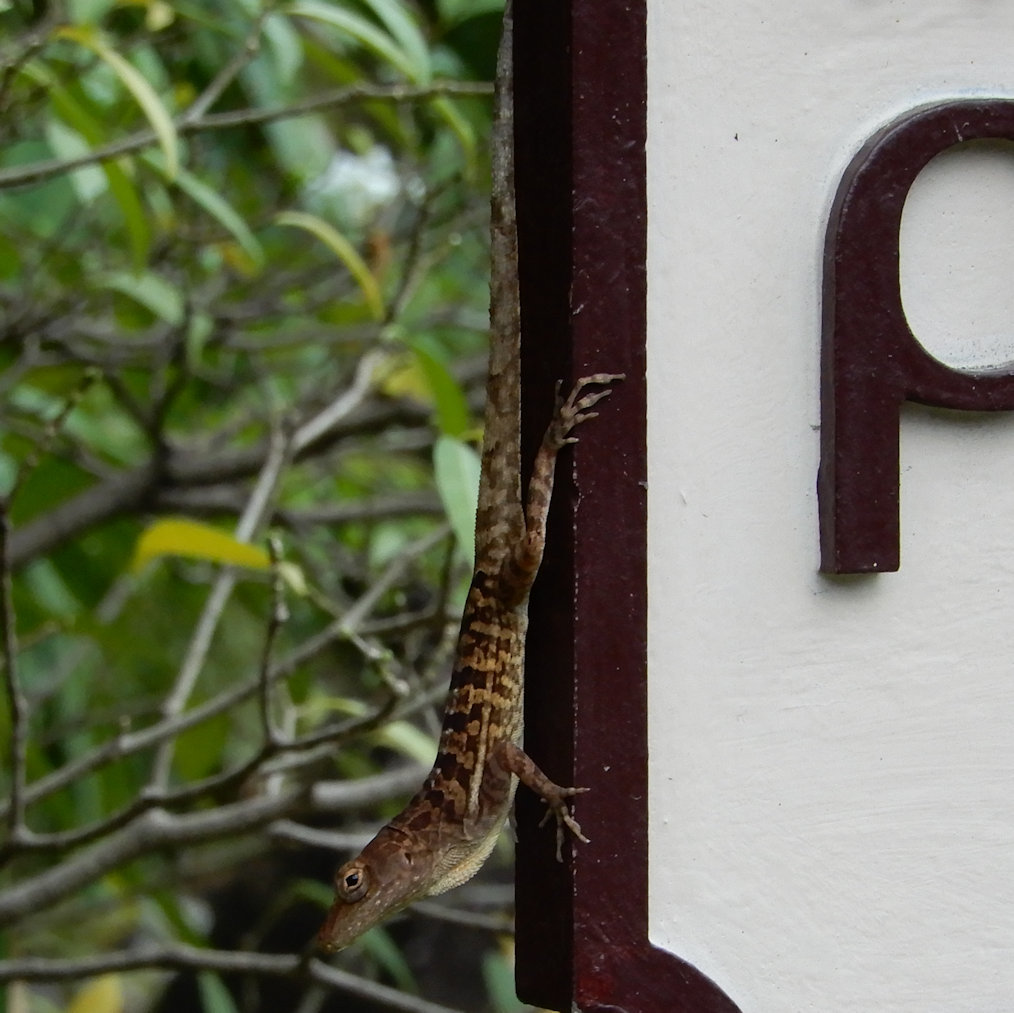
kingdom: Animalia
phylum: Chordata
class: Squamata
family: Dactyloidae
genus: Anolis
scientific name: Anolis lineatopus
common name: Stripefoot anole
